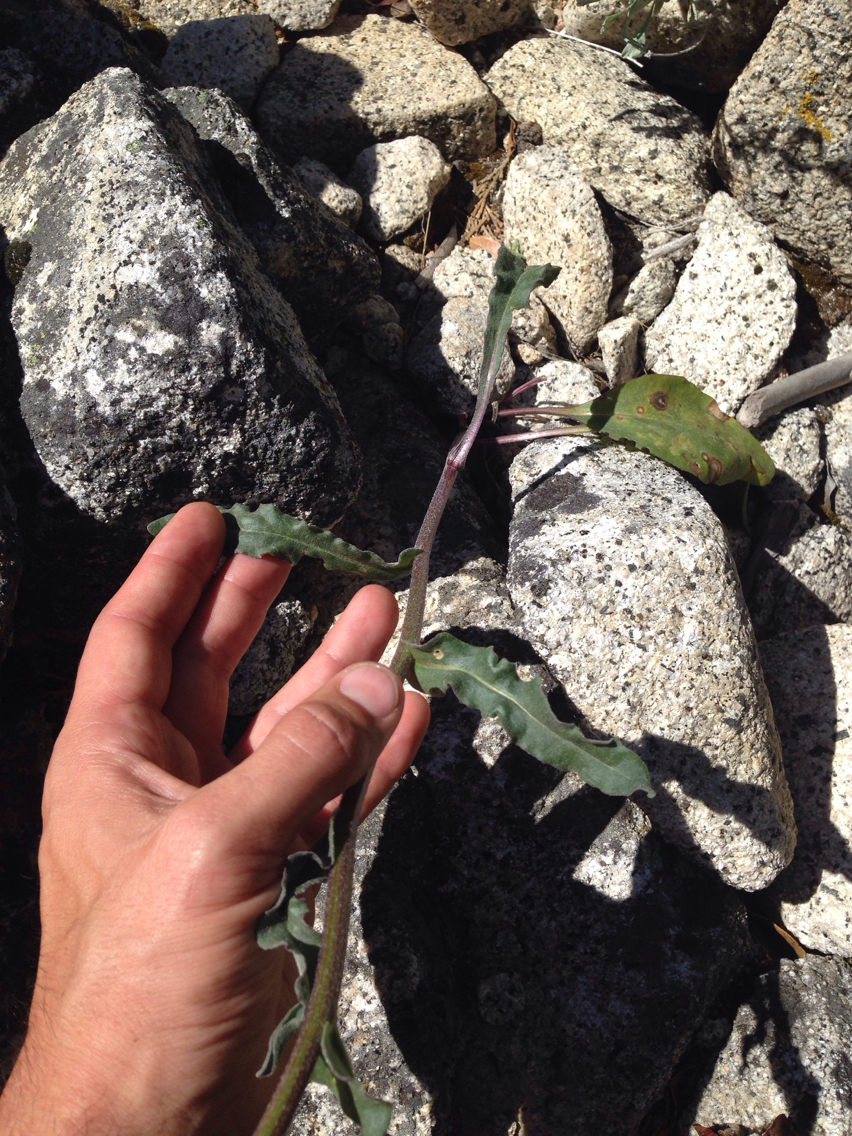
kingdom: Plantae
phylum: Tracheophyta
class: Magnoliopsida
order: Asterales
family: Asteraceae
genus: Senecio
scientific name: Senecio aronicoides
